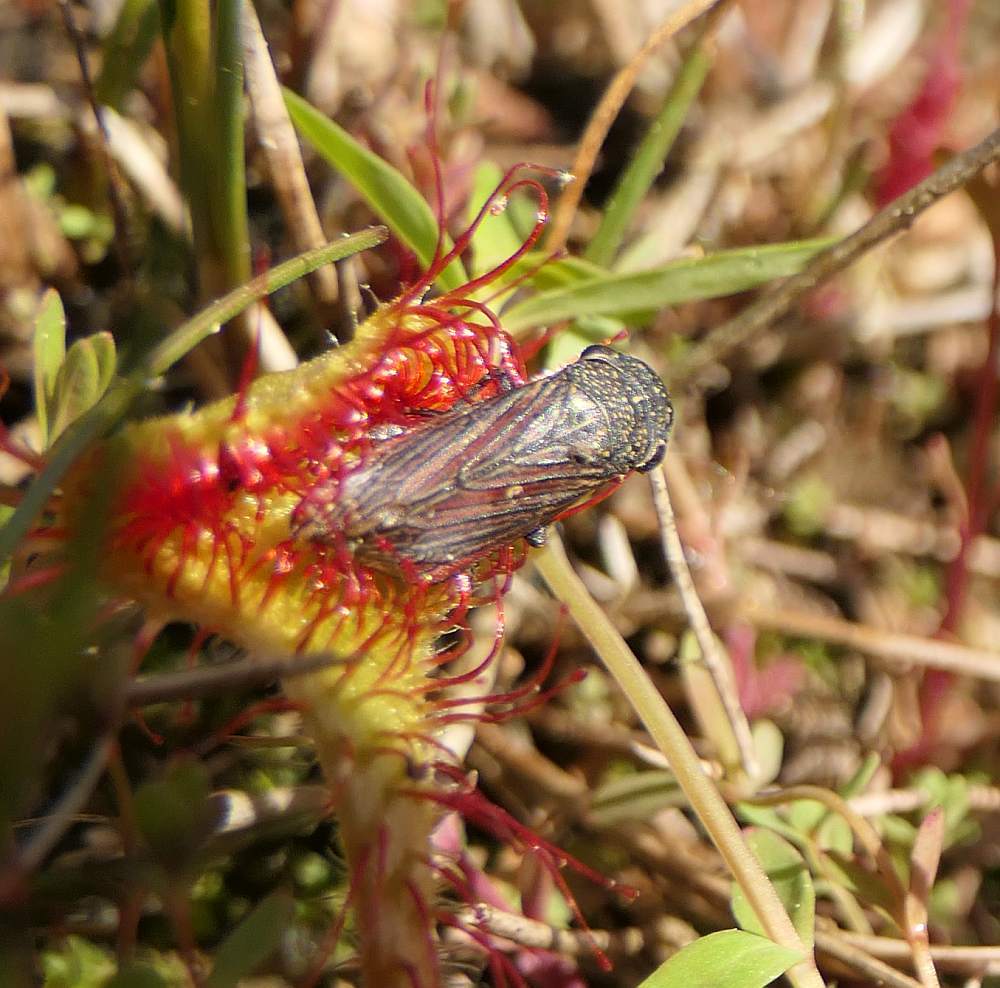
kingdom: Animalia
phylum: Arthropoda
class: Insecta
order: Hemiptera
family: Cicadellidae
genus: Cuerna
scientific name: Cuerna striata
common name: Striped leafhopper
